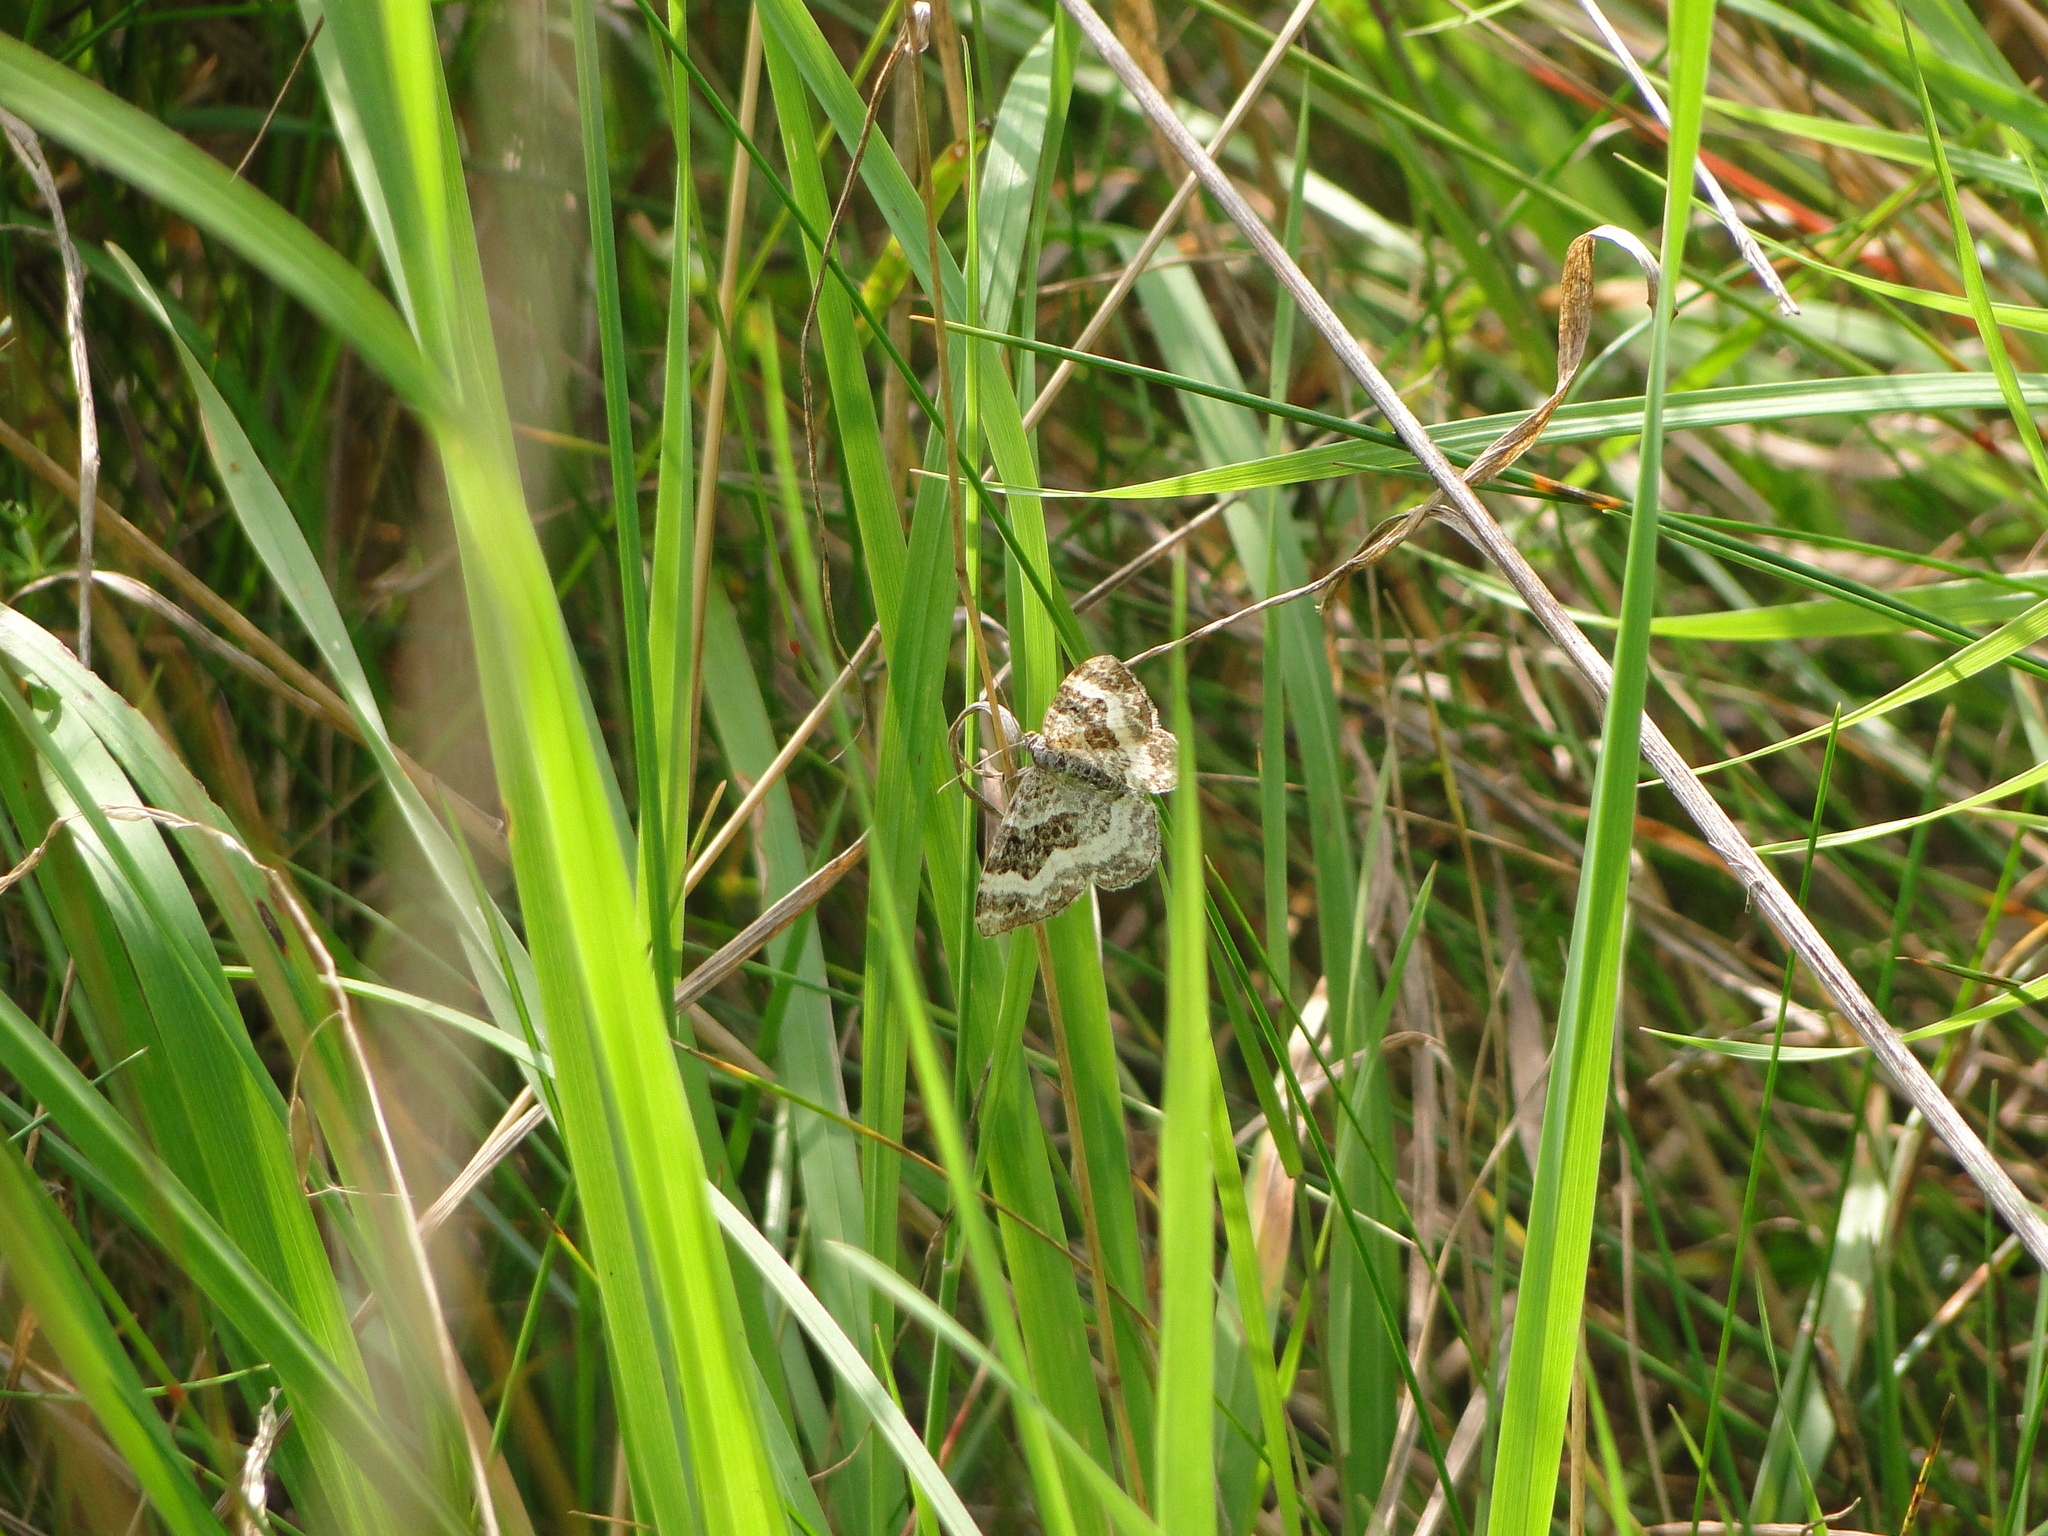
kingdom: Animalia
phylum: Arthropoda
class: Insecta
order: Lepidoptera
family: Geometridae
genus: Epirrhoe
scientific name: Epirrhoe alternata
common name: Common carpet
